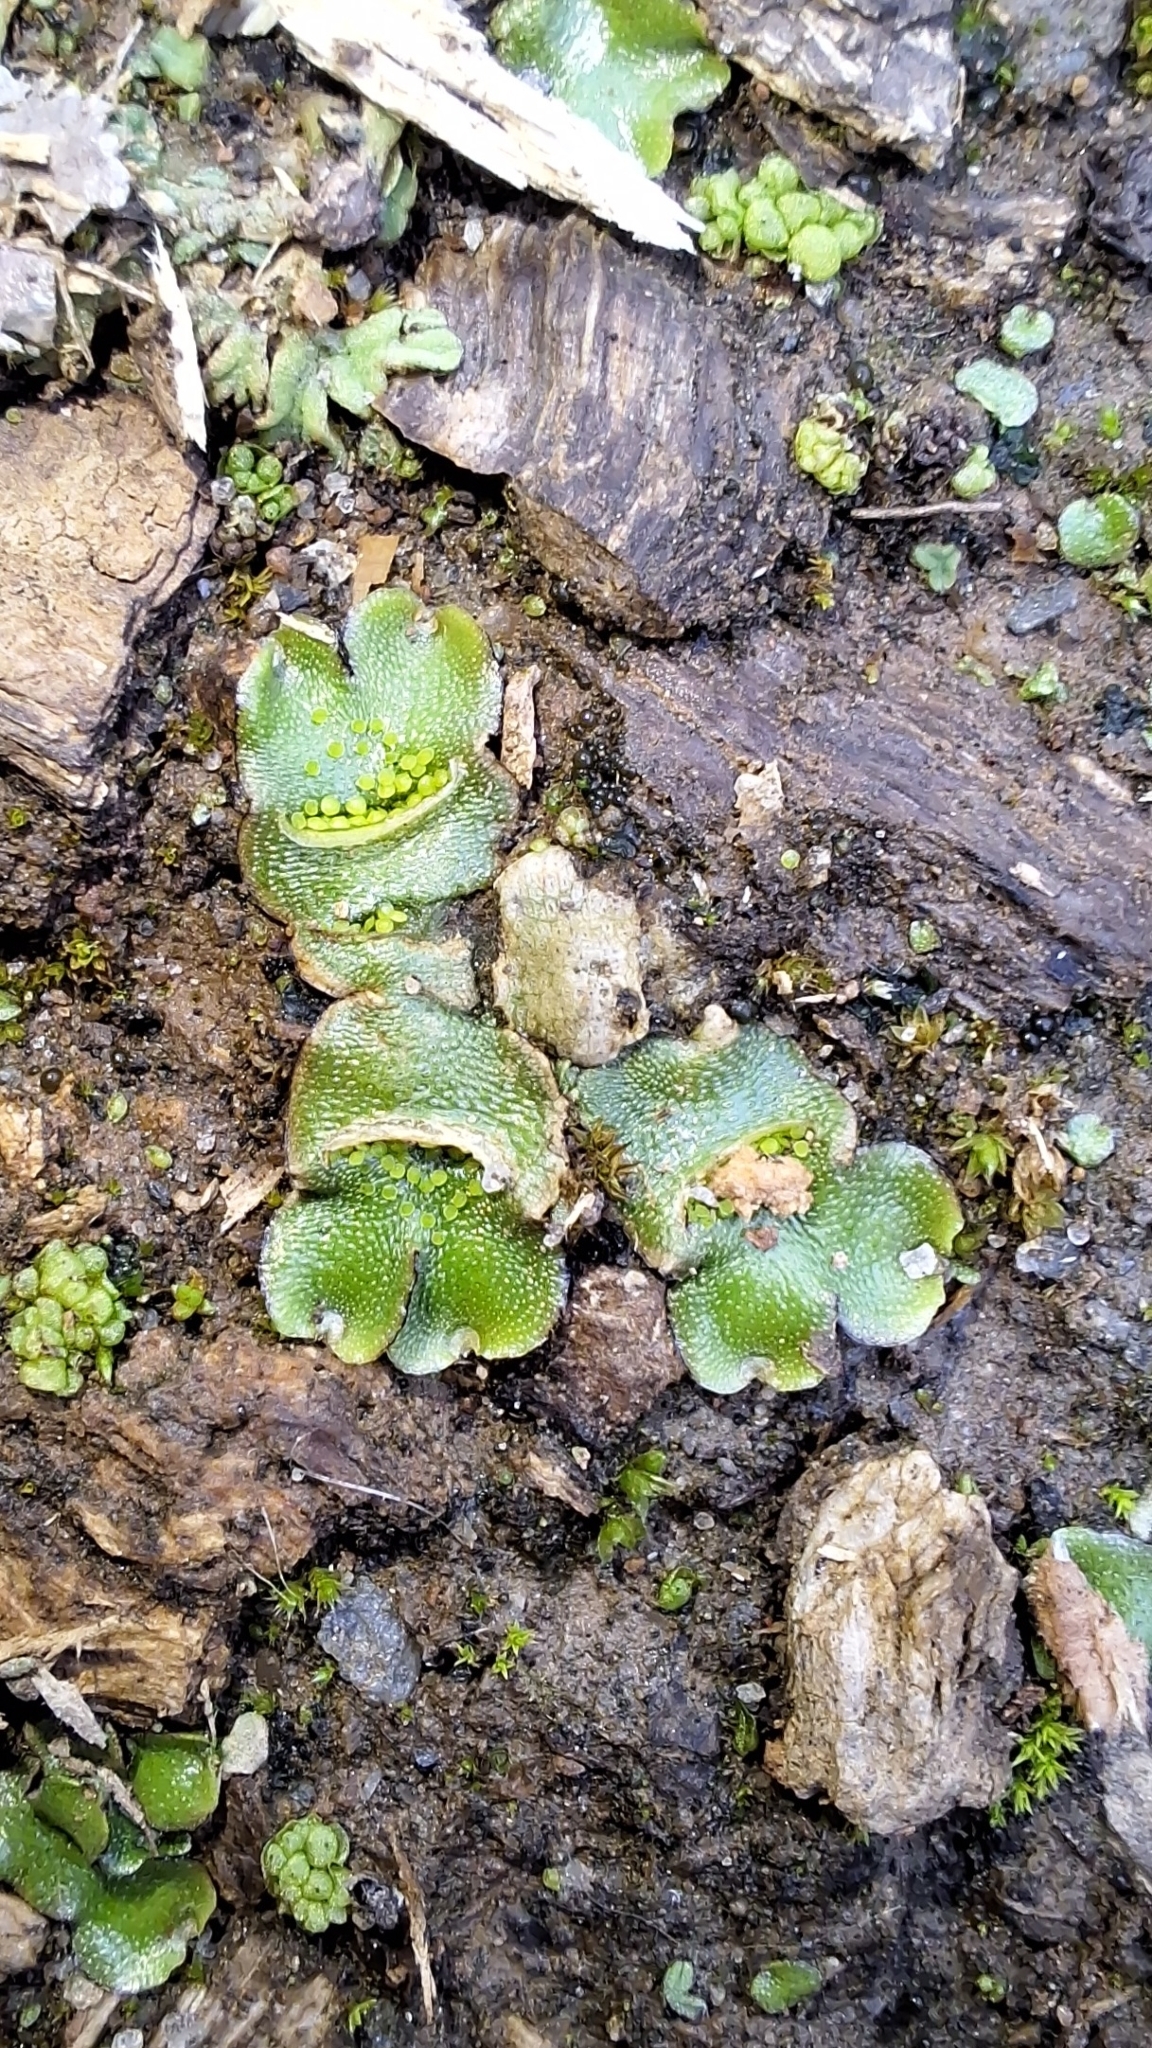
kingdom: Plantae
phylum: Marchantiophyta
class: Marchantiopsida
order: Lunulariales
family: Lunulariaceae
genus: Lunularia
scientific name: Lunularia cruciata
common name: Crescent-cup liverwort
